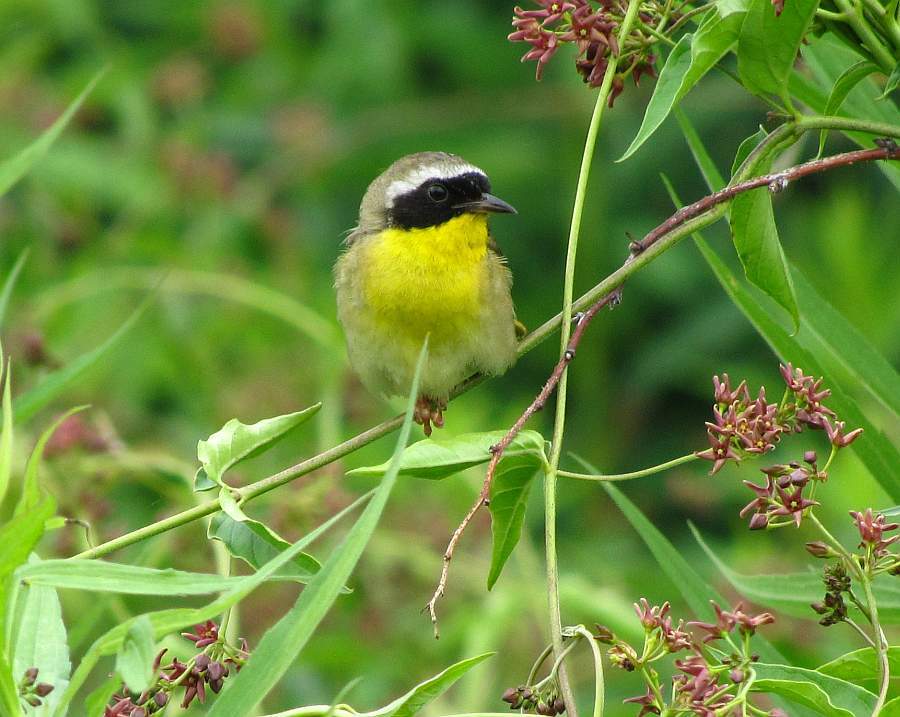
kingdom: Animalia
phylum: Chordata
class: Aves
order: Passeriformes
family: Parulidae
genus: Geothlypis
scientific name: Geothlypis trichas
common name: Common yellowthroat
